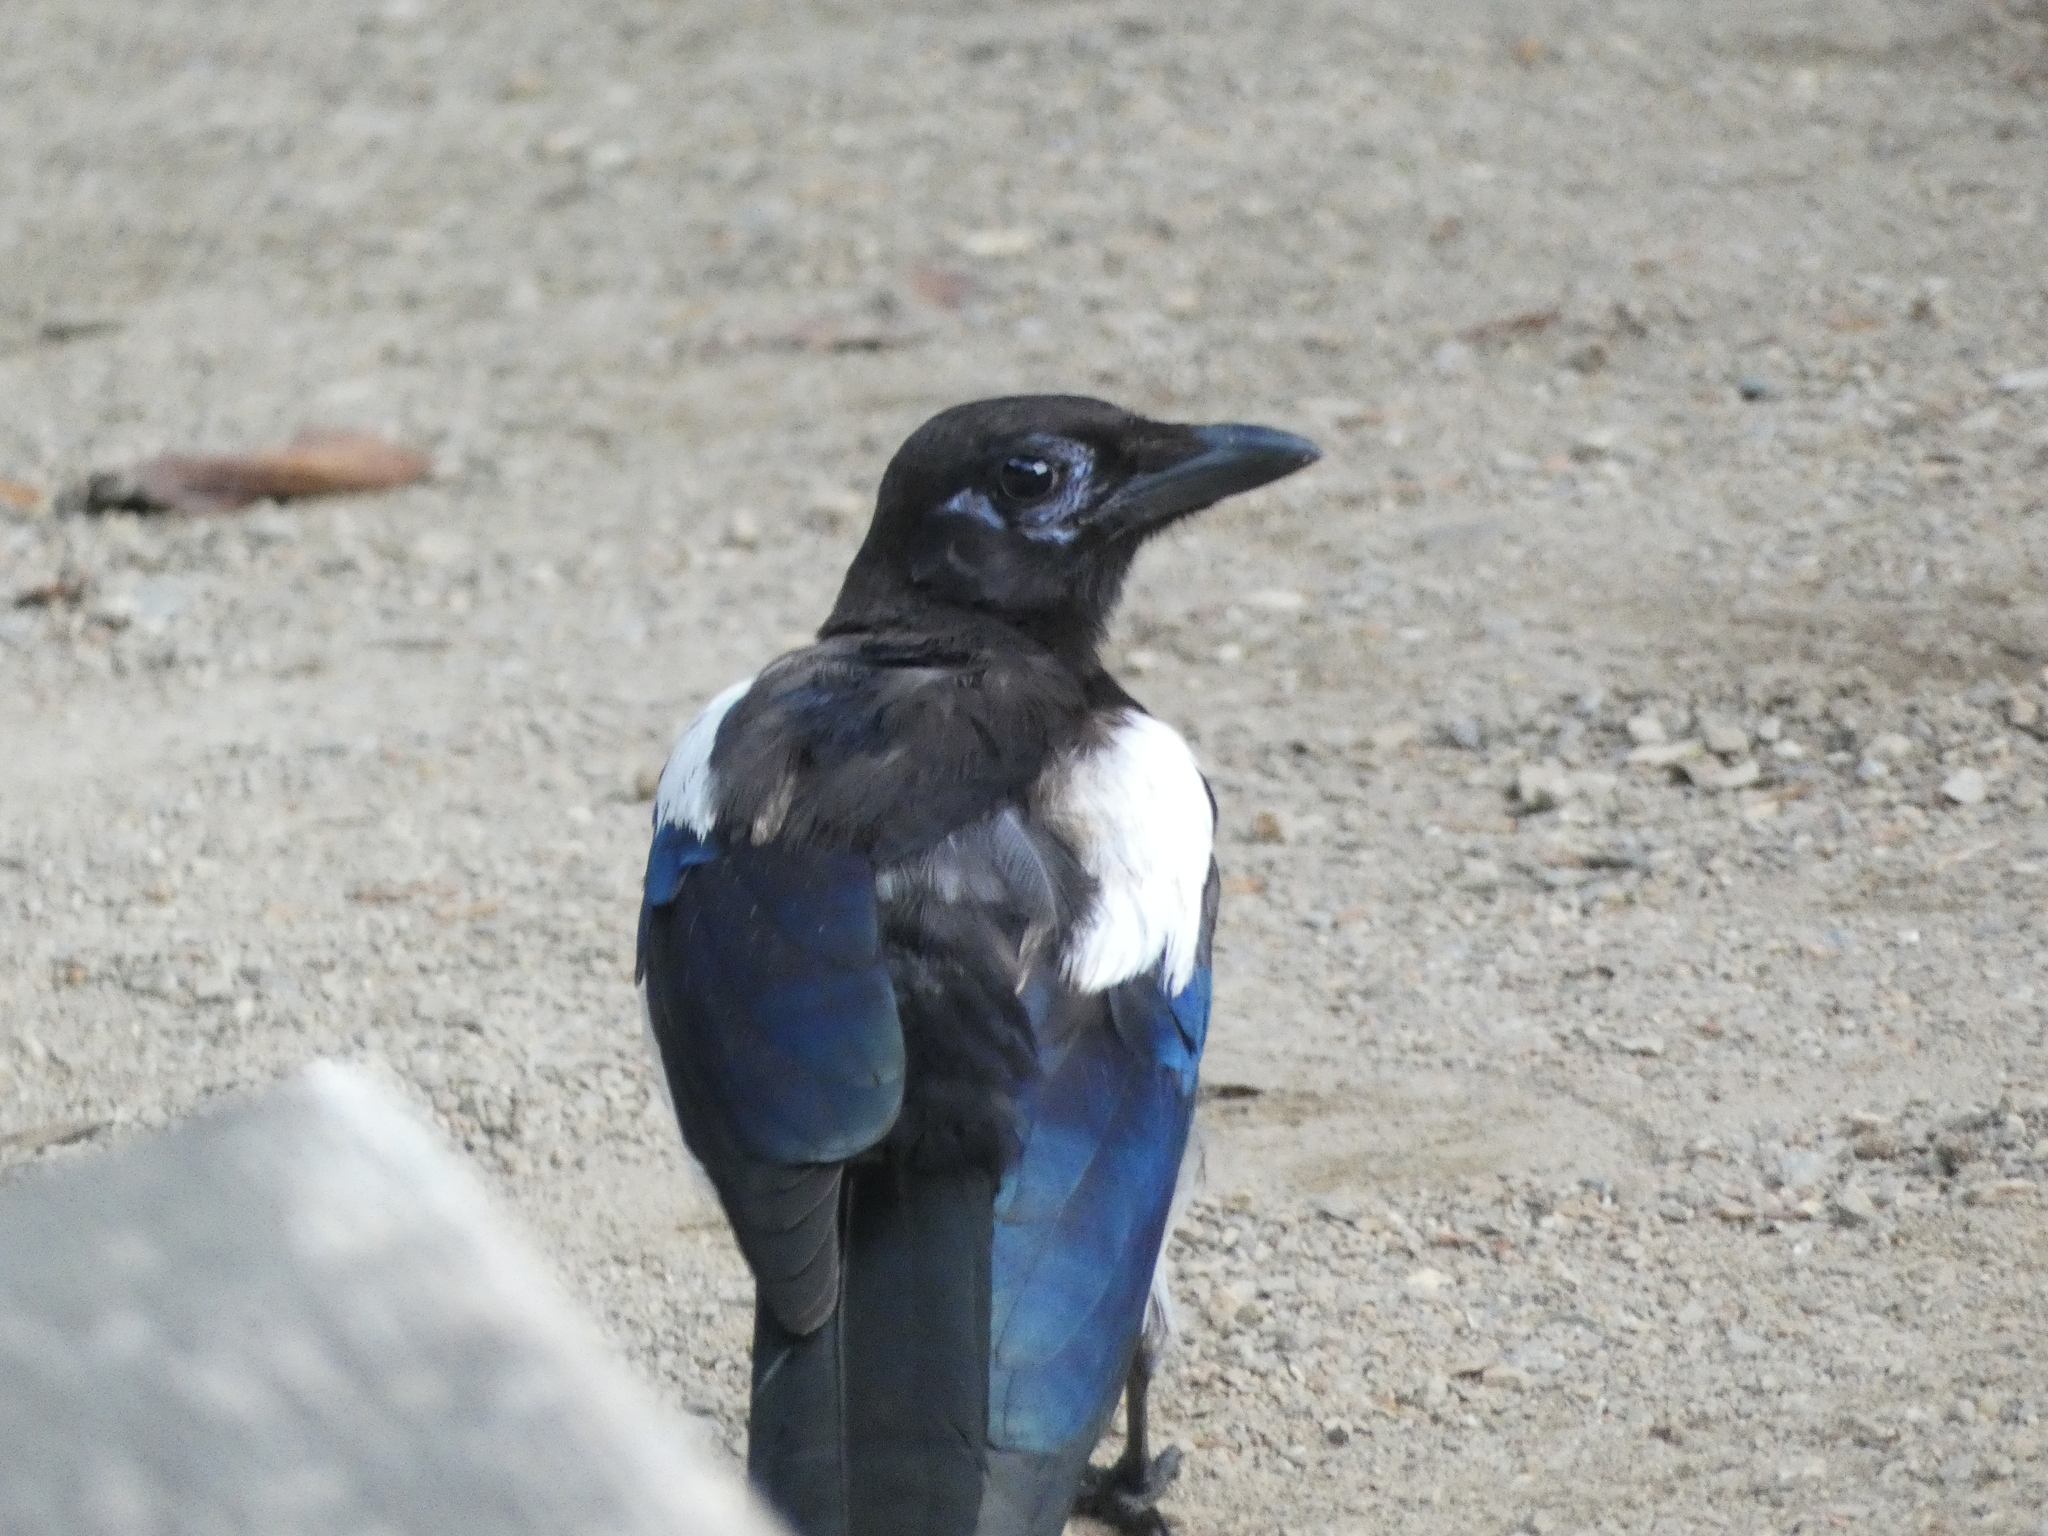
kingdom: Animalia
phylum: Chordata
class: Aves
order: Passeriformes
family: Corvidae
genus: Pica
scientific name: Pica pica
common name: Eurasian magpie
